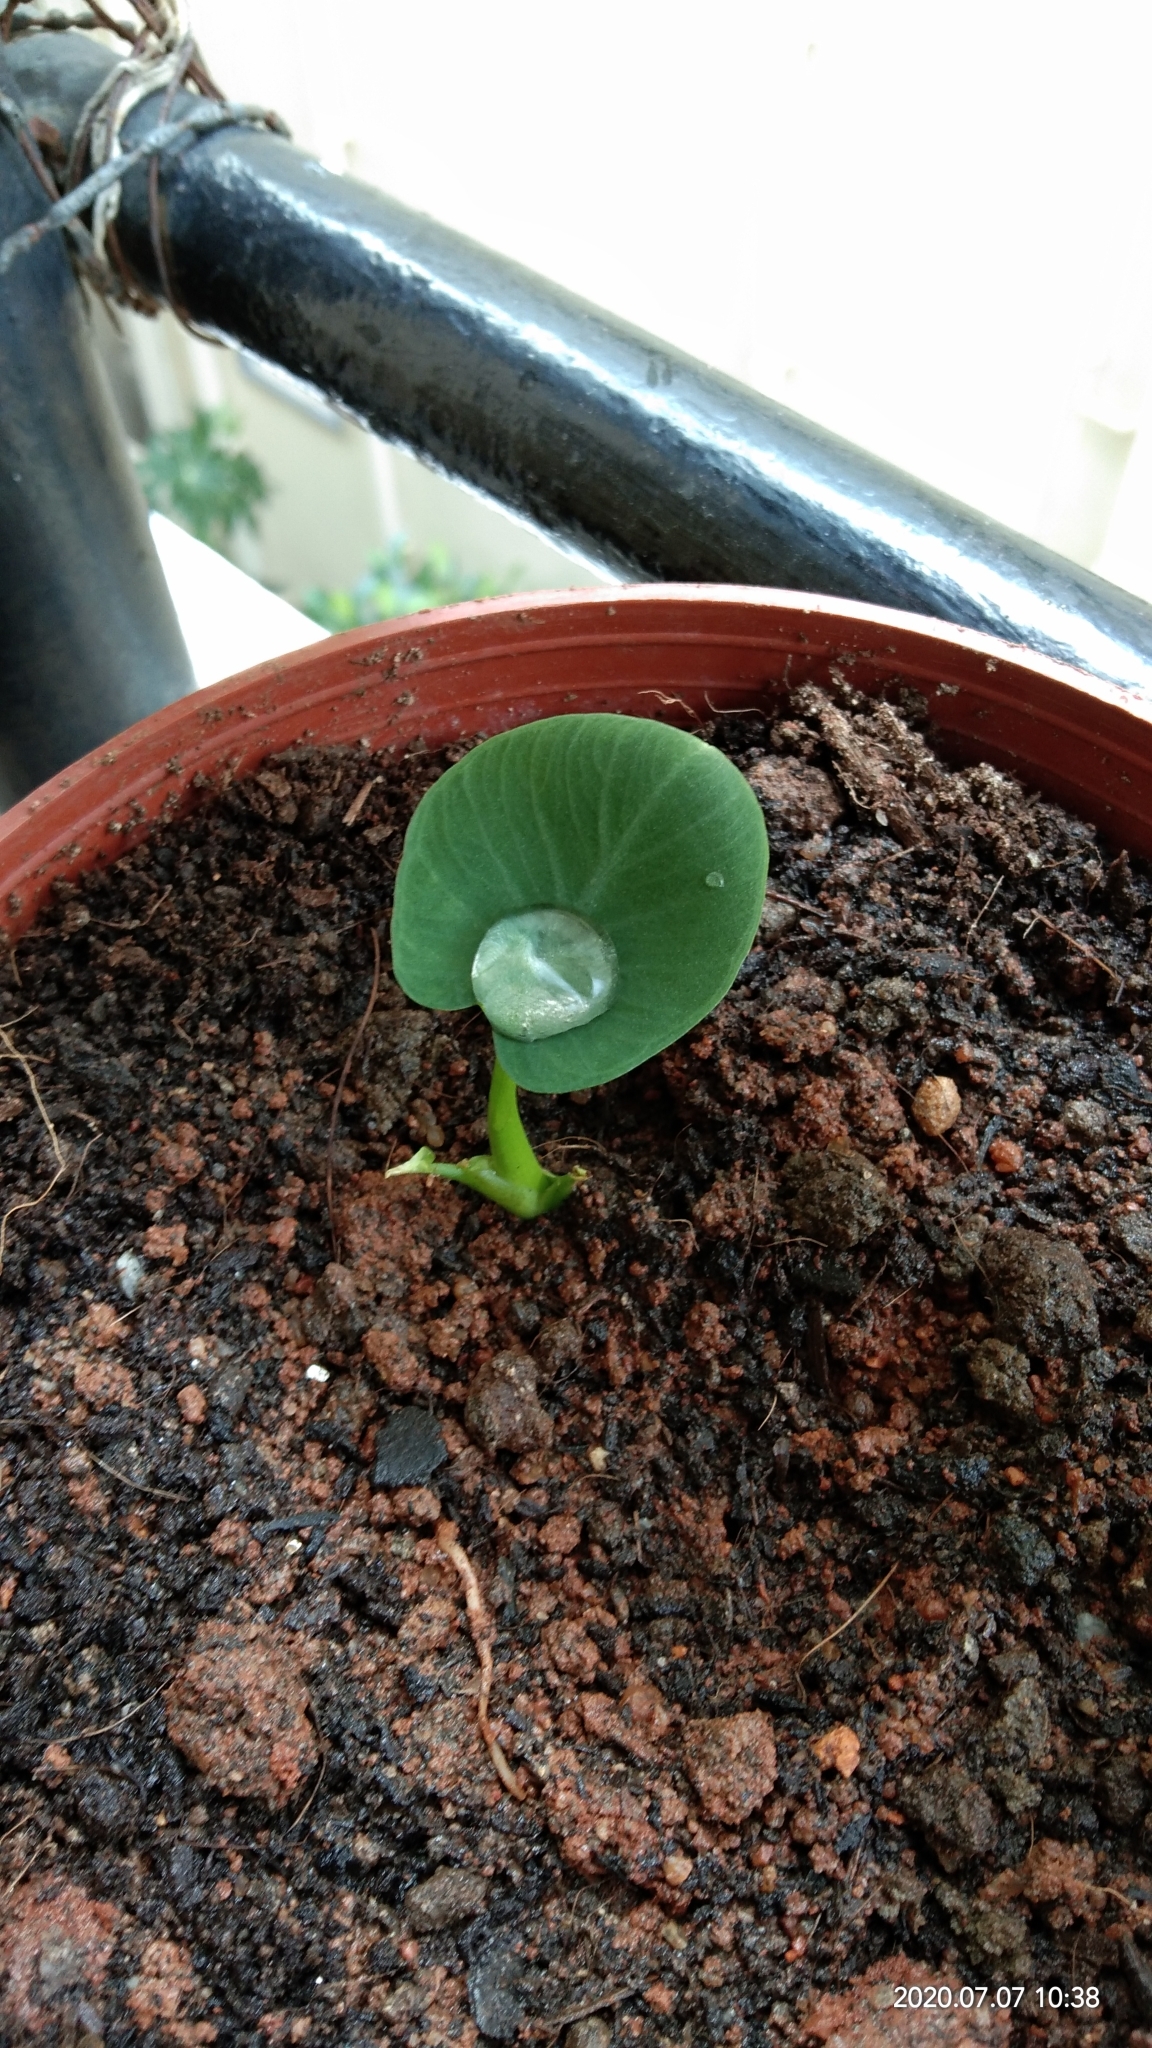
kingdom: Plantae
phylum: Tracheophyta
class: Liliopsida
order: Alismatales
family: Araceae
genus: Colocasia
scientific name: Colocasia esculenta
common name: Taro
